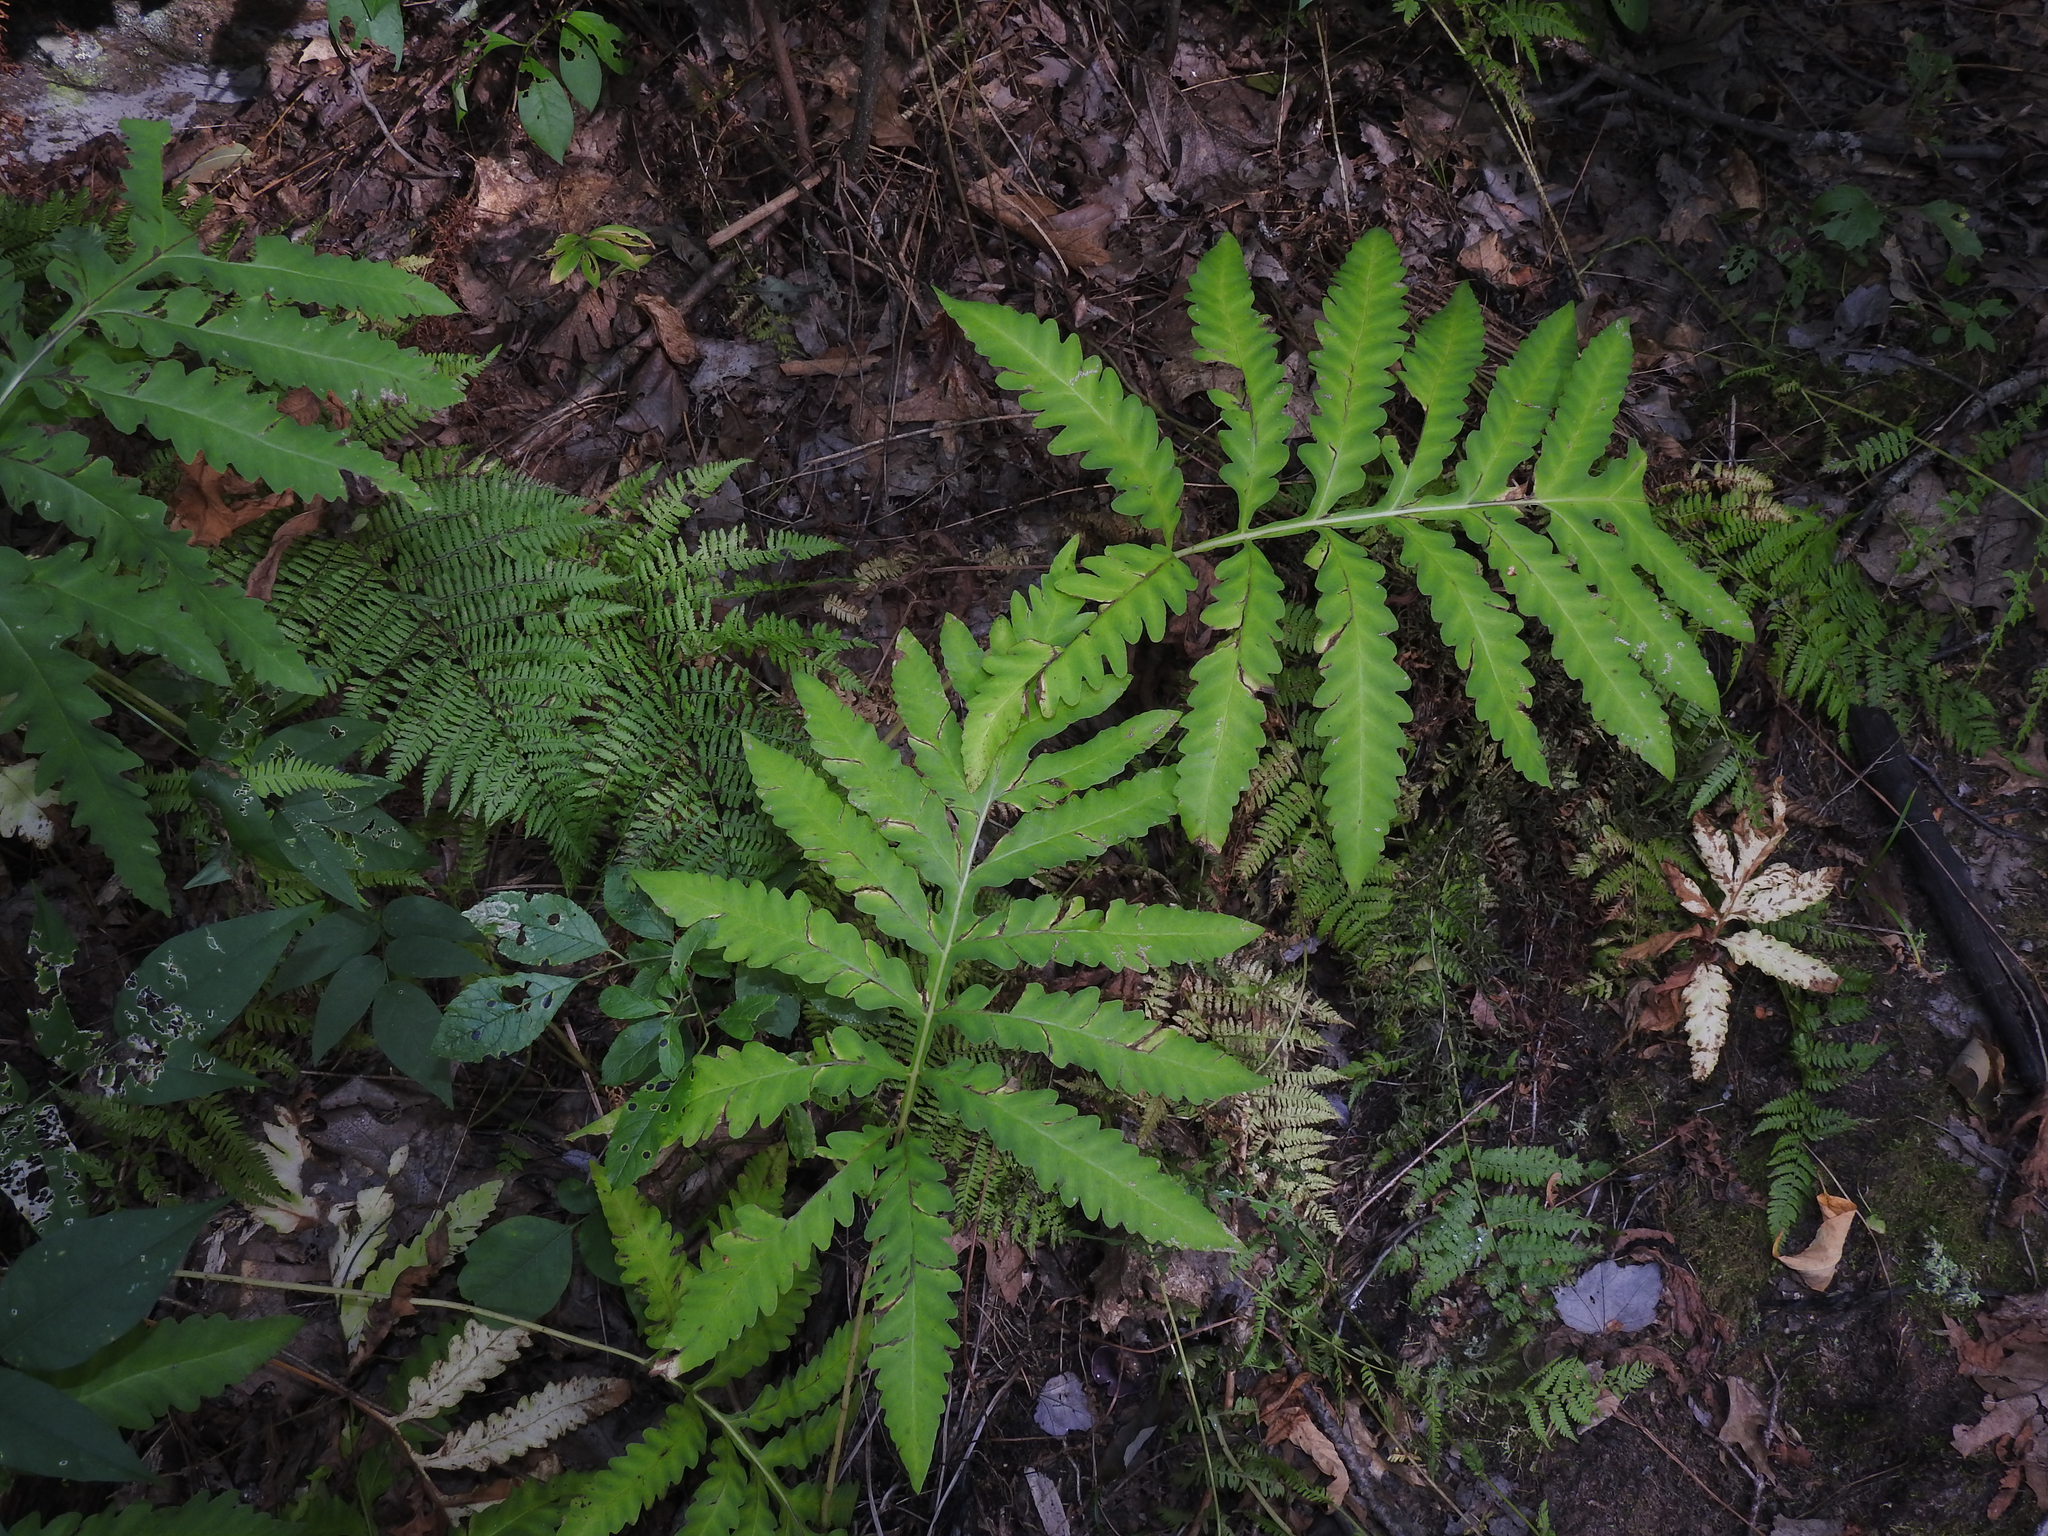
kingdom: Plantae
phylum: Tracheophyta
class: Polypodiopsida
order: Polypodiales
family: Onocleaceae
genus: Onoclea
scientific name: Onoclea sensibilis
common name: Sensitive fern
